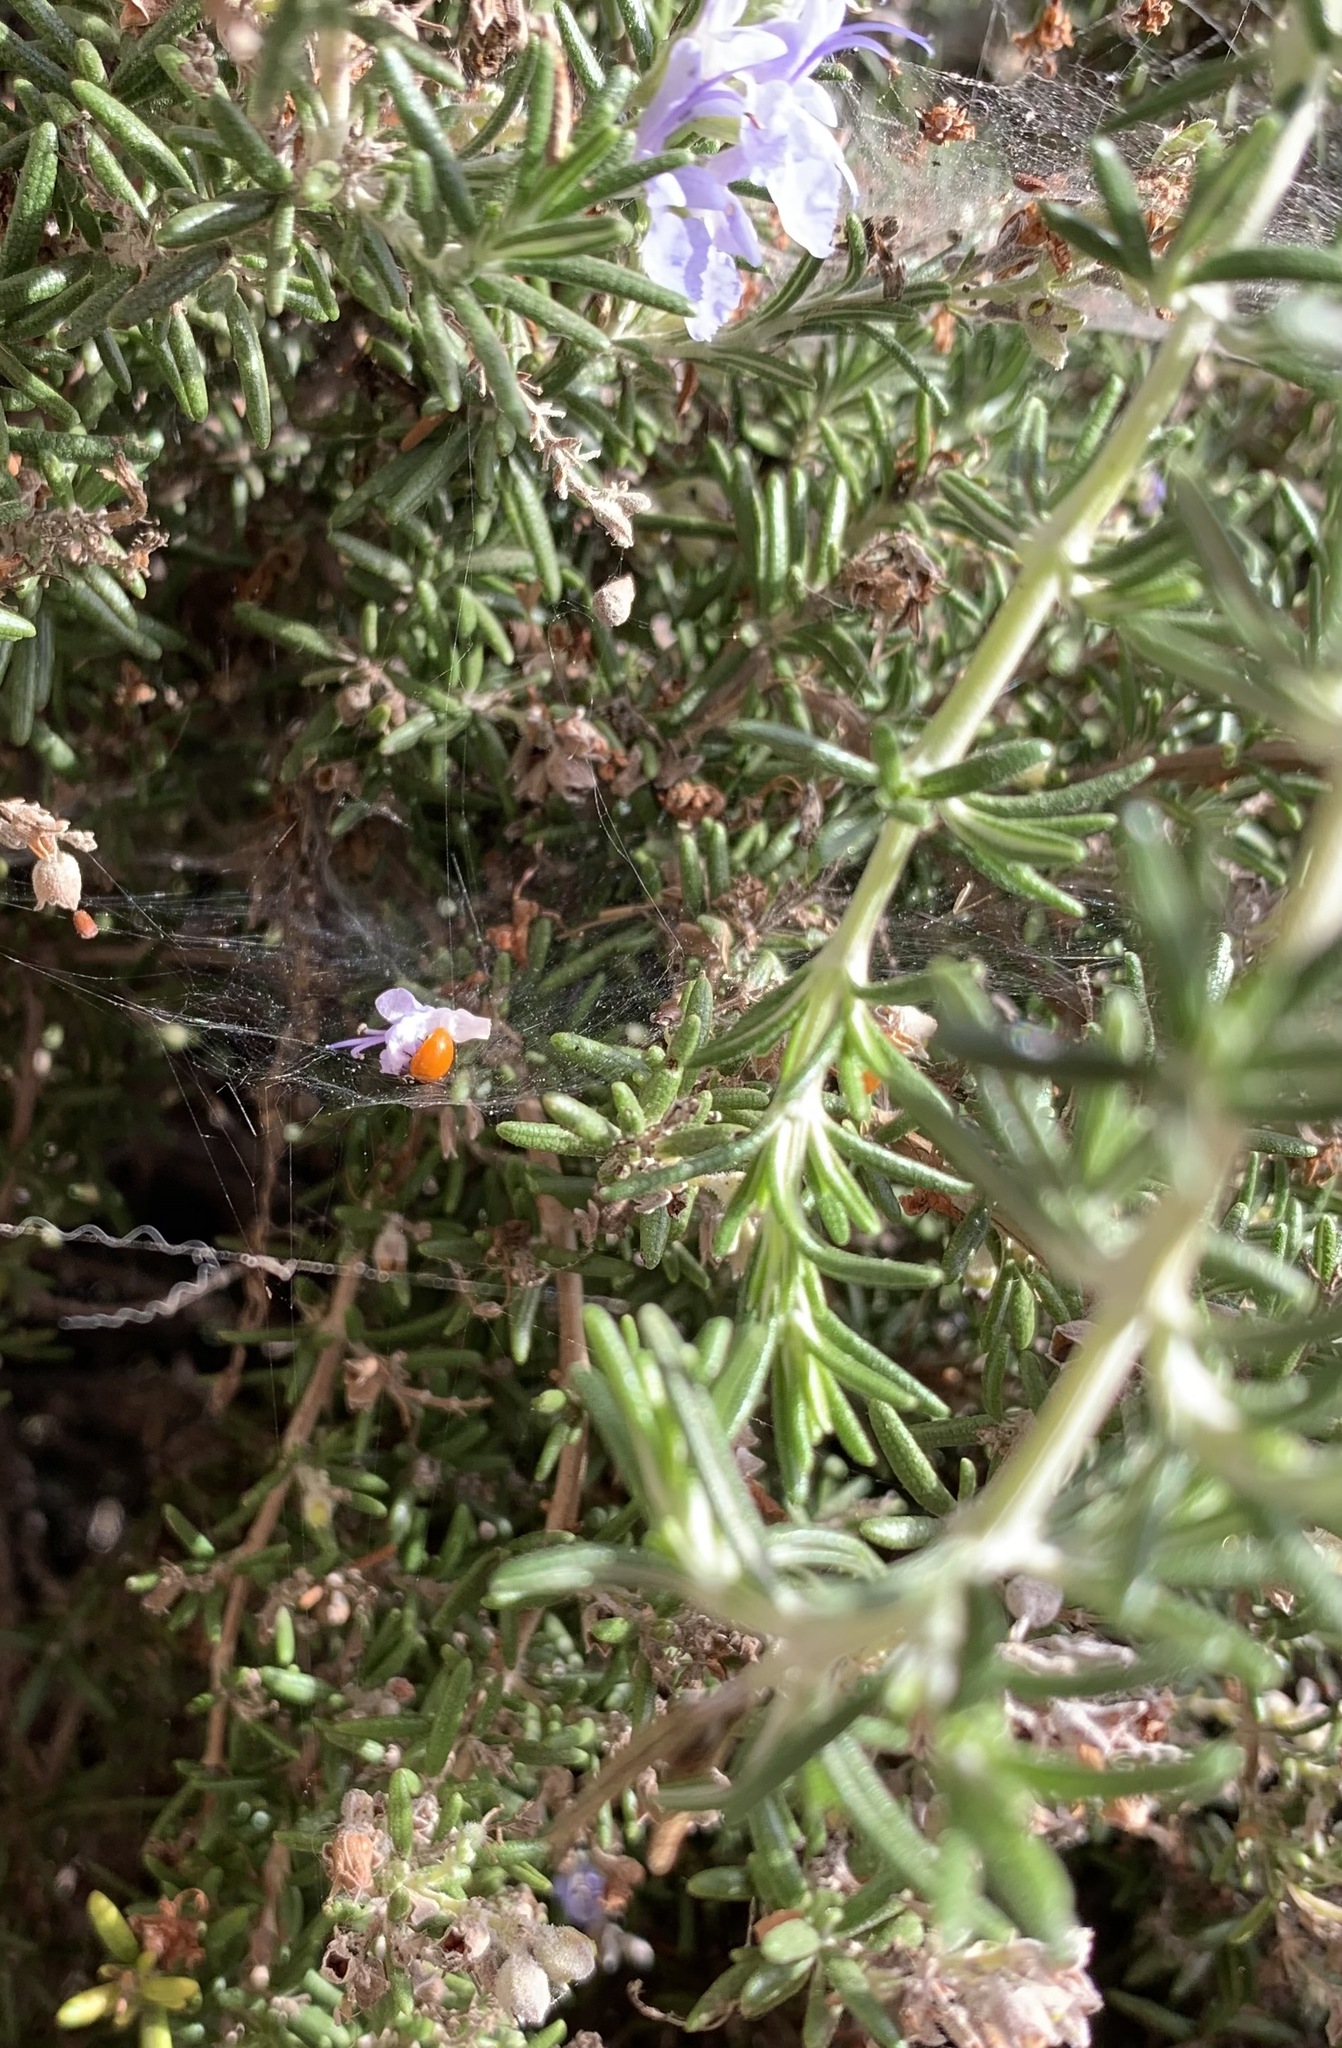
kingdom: Animalia
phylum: Arthropoda
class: Insecta
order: Coleoptera
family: Coccinellidae
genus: Cycloneda
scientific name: Cycloneda sanguinea
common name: Ladybird beetle
